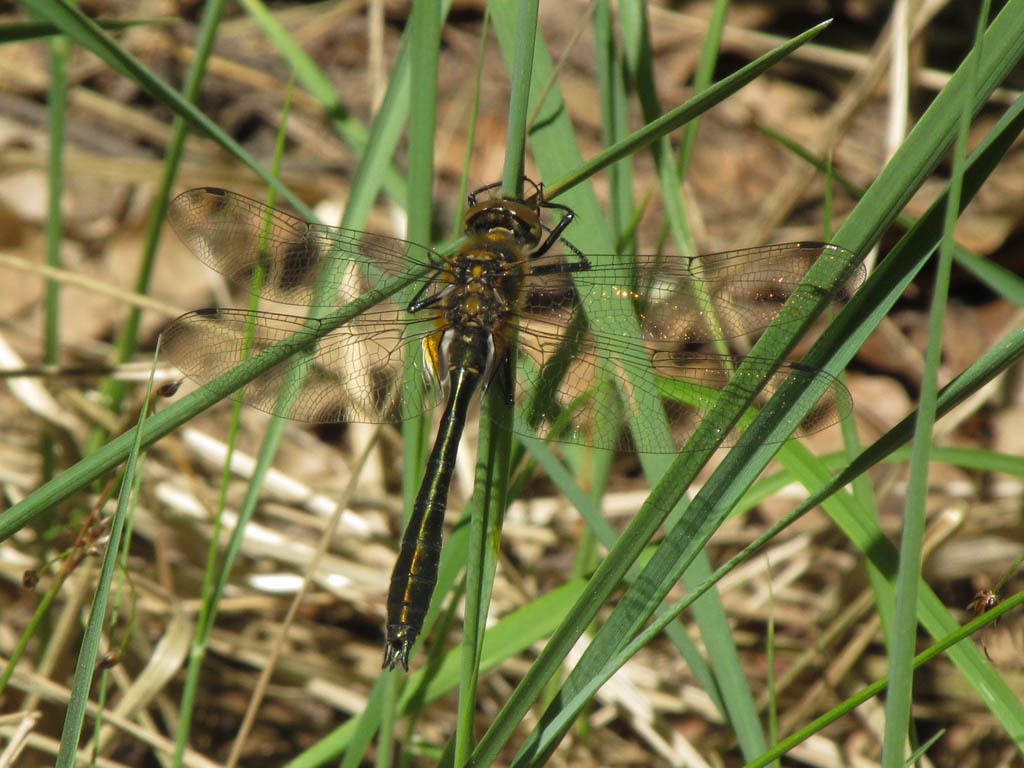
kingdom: Animalia
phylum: Arthropoda
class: Insecta
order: Odonata
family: Corduliidae
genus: Cordulia
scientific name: Cordulia aenea
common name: Downy emerald
